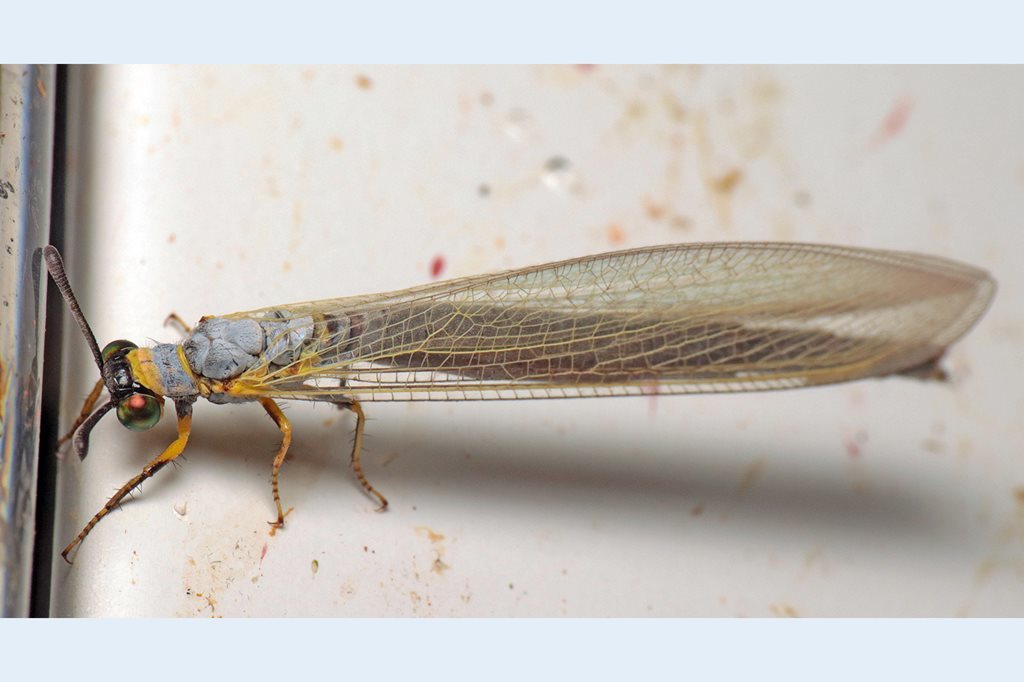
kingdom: Animalia
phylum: Arthropoda
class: Insecta
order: Neuroptera
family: Myrmeleontidae
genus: Myrmeleon
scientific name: Myrmeleon croceicollis
